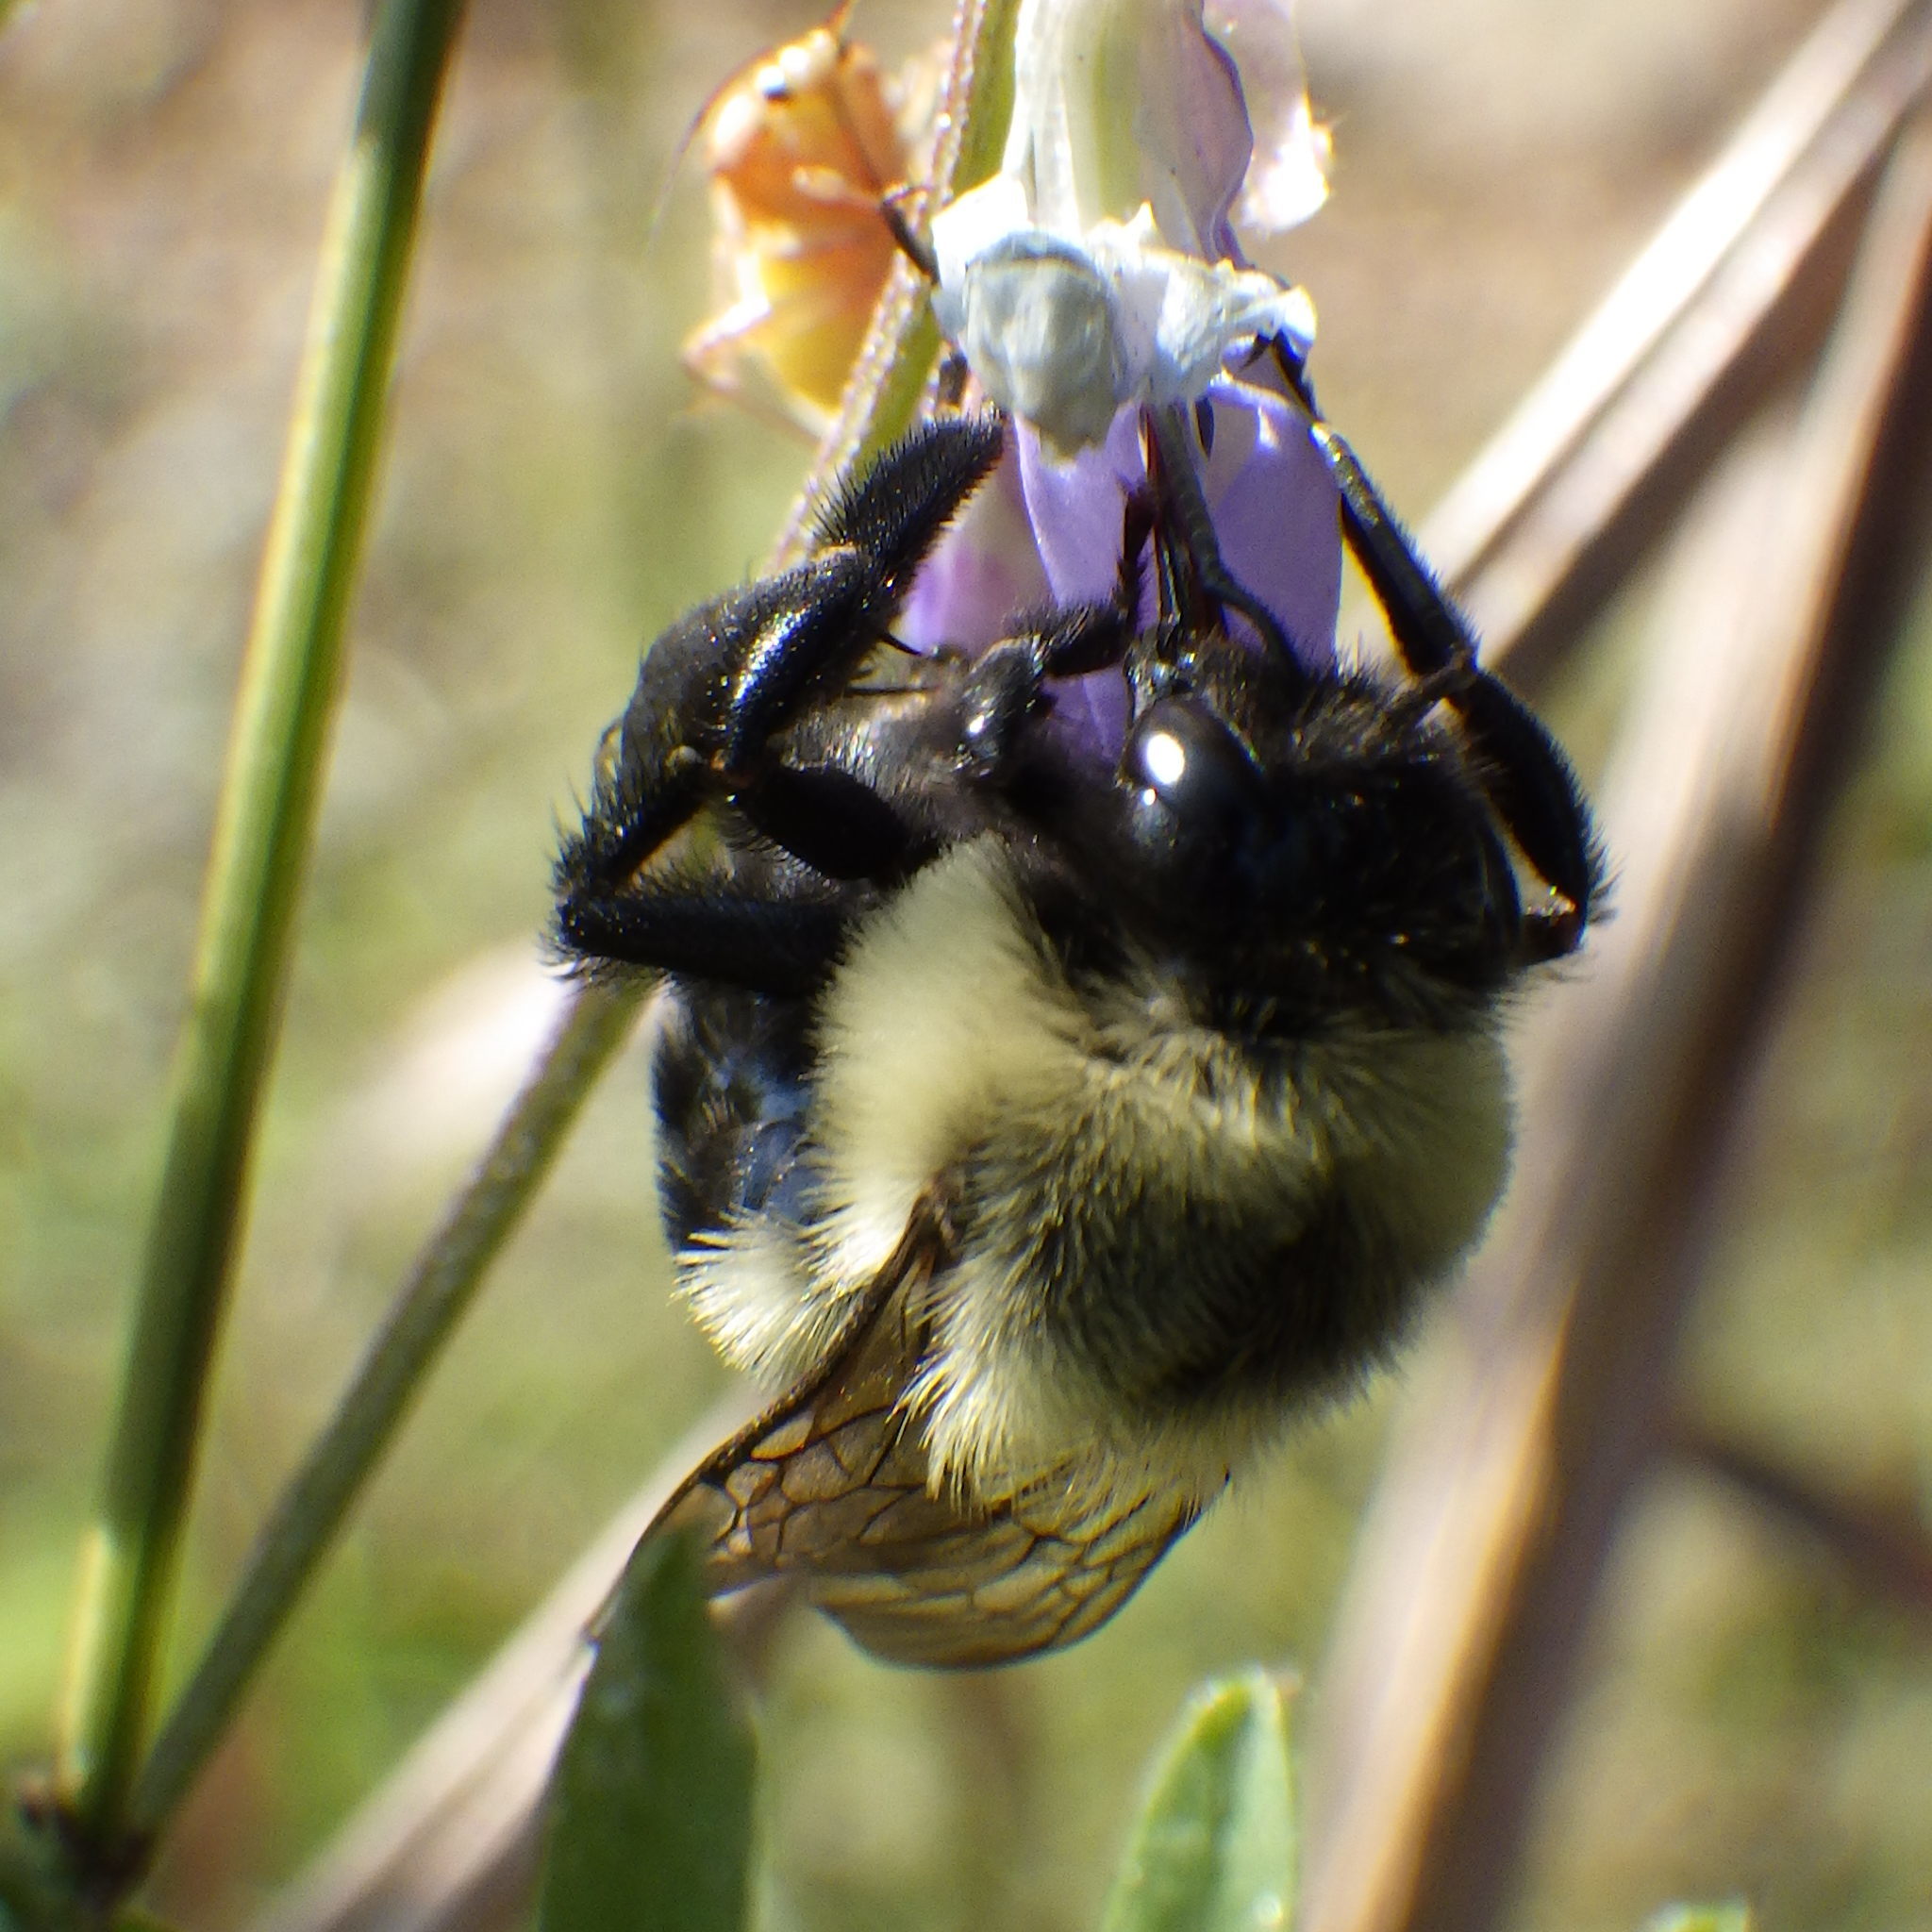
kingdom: Animalia
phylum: Arthropoda
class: Insecta
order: Hymenoptera
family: Apidae
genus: Bombus
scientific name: Bombus impatiens
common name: Common eastern bumble bee
